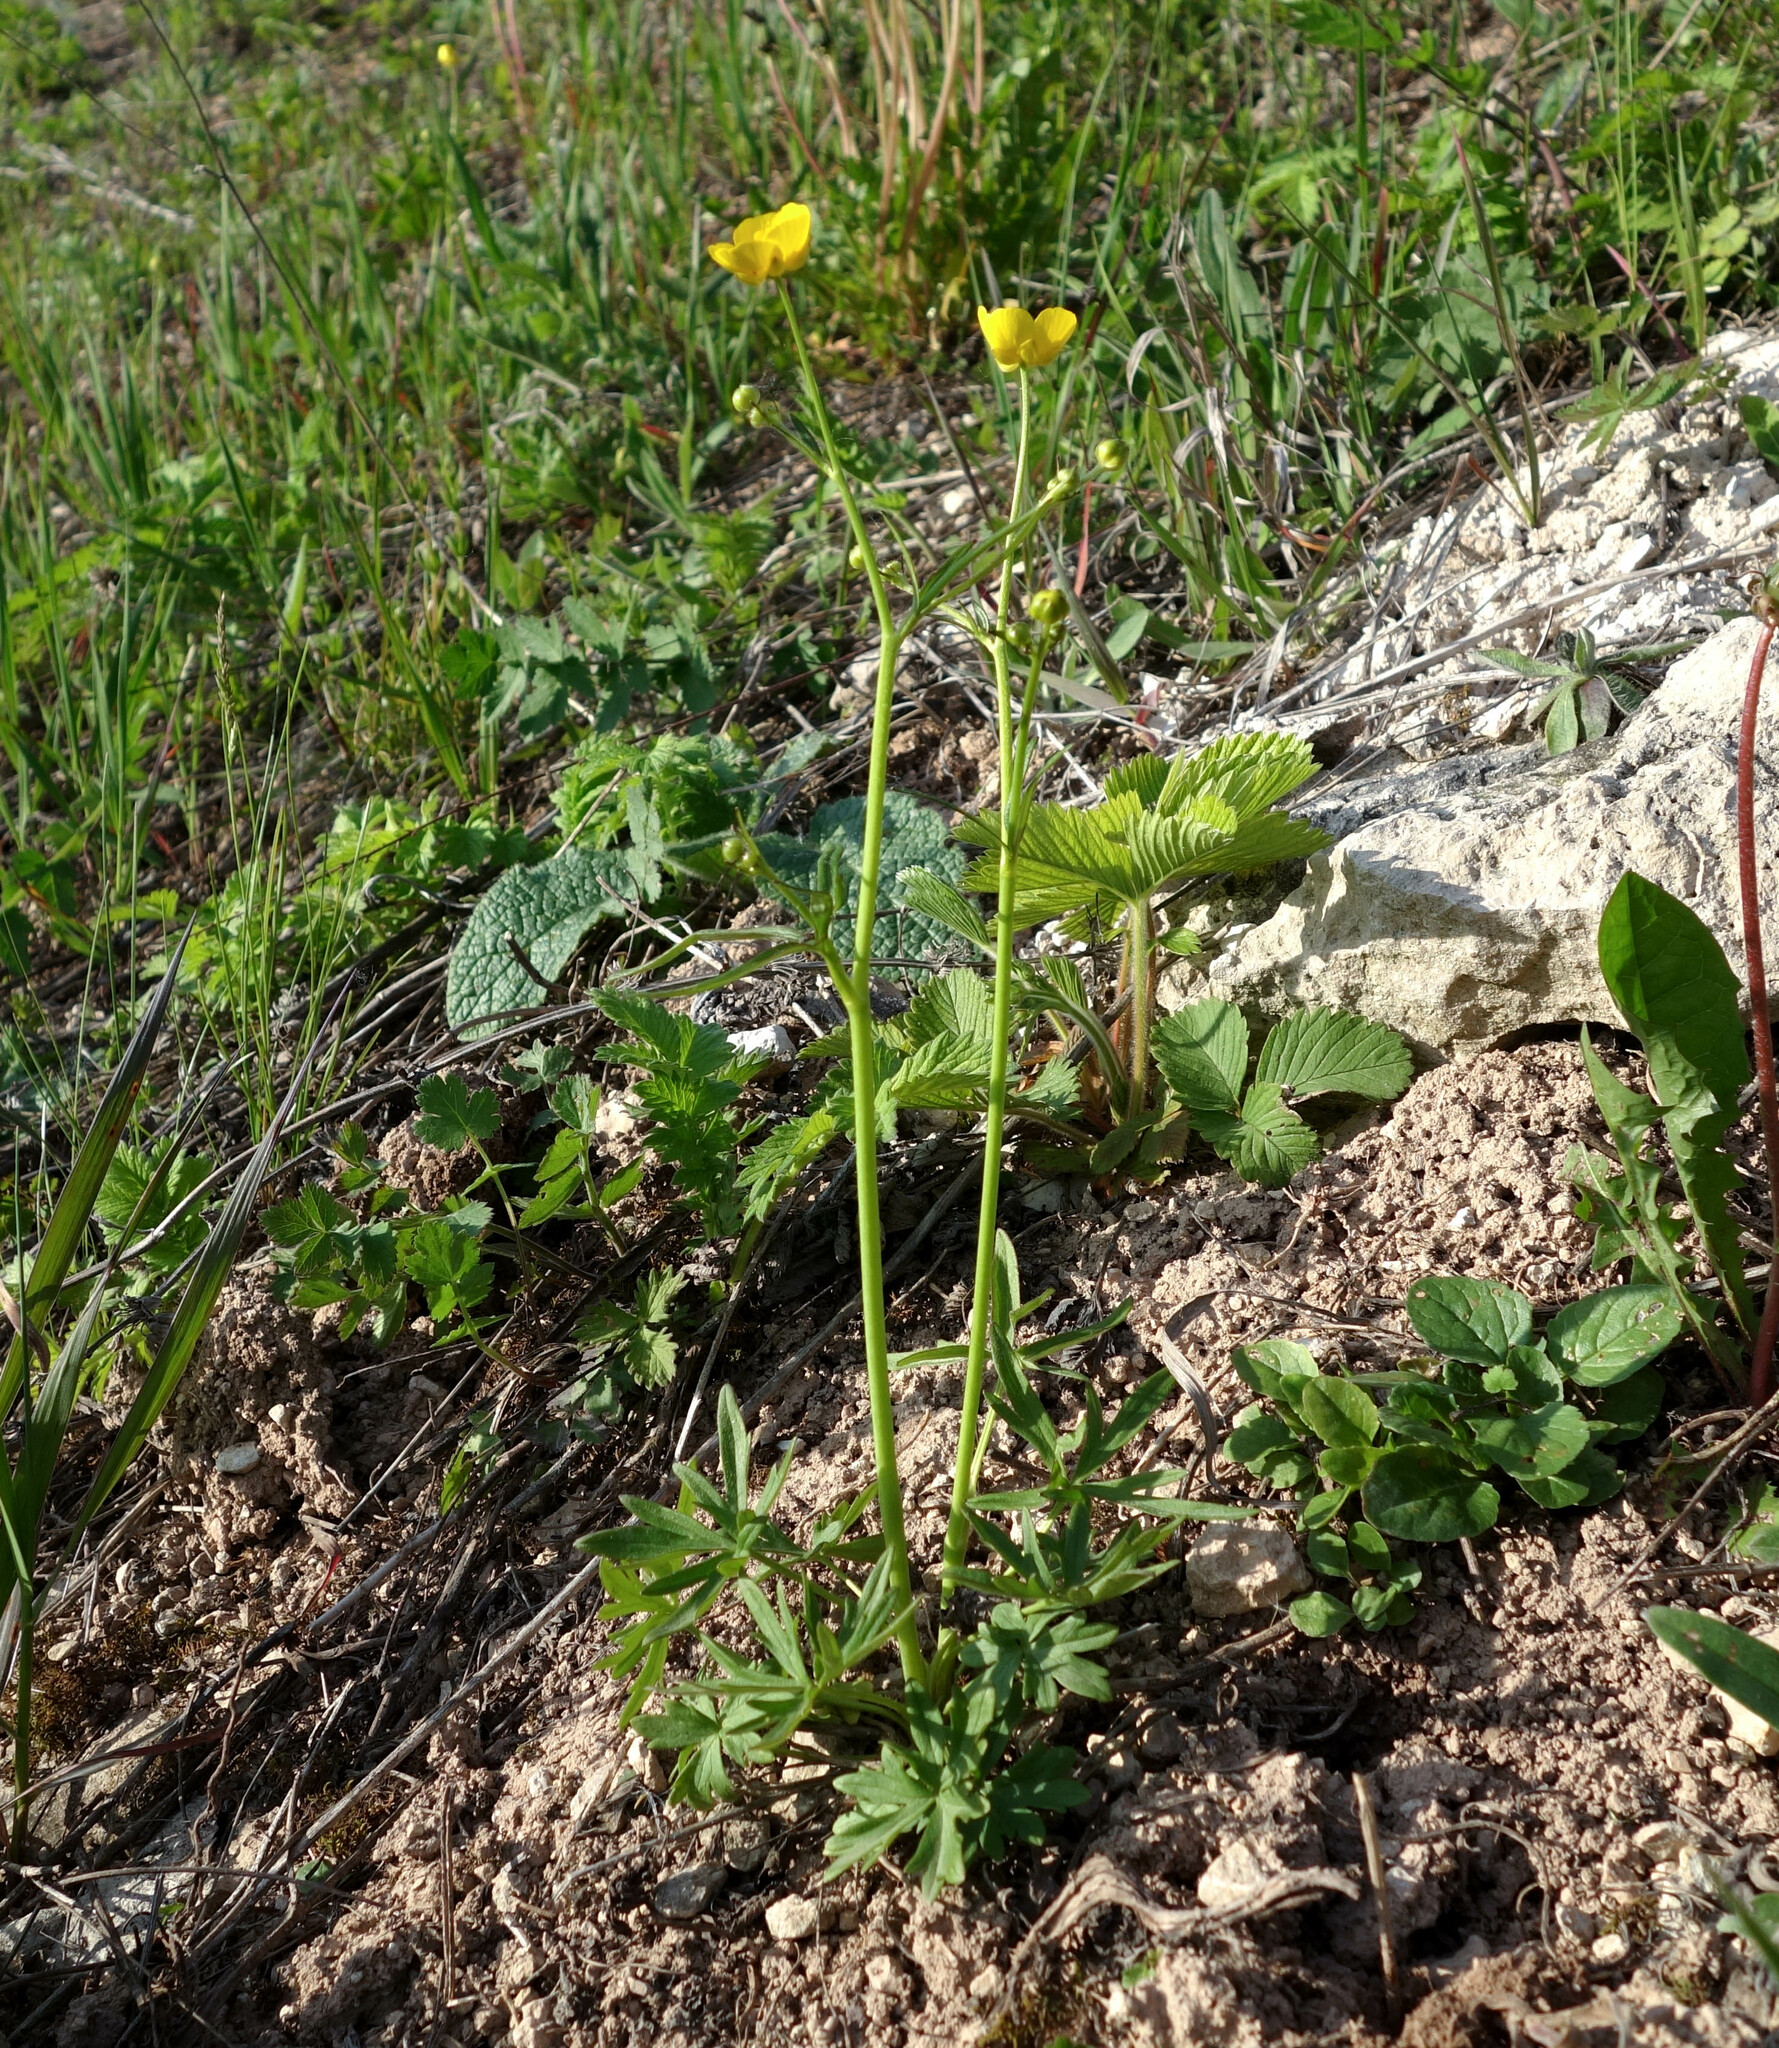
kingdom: Plantae
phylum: Tracheophyta
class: Magnoliopsida
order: Ranunculales
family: Ranunculaceae
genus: Ranunculus
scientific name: Ranunculus acris
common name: Meadow buttercup
